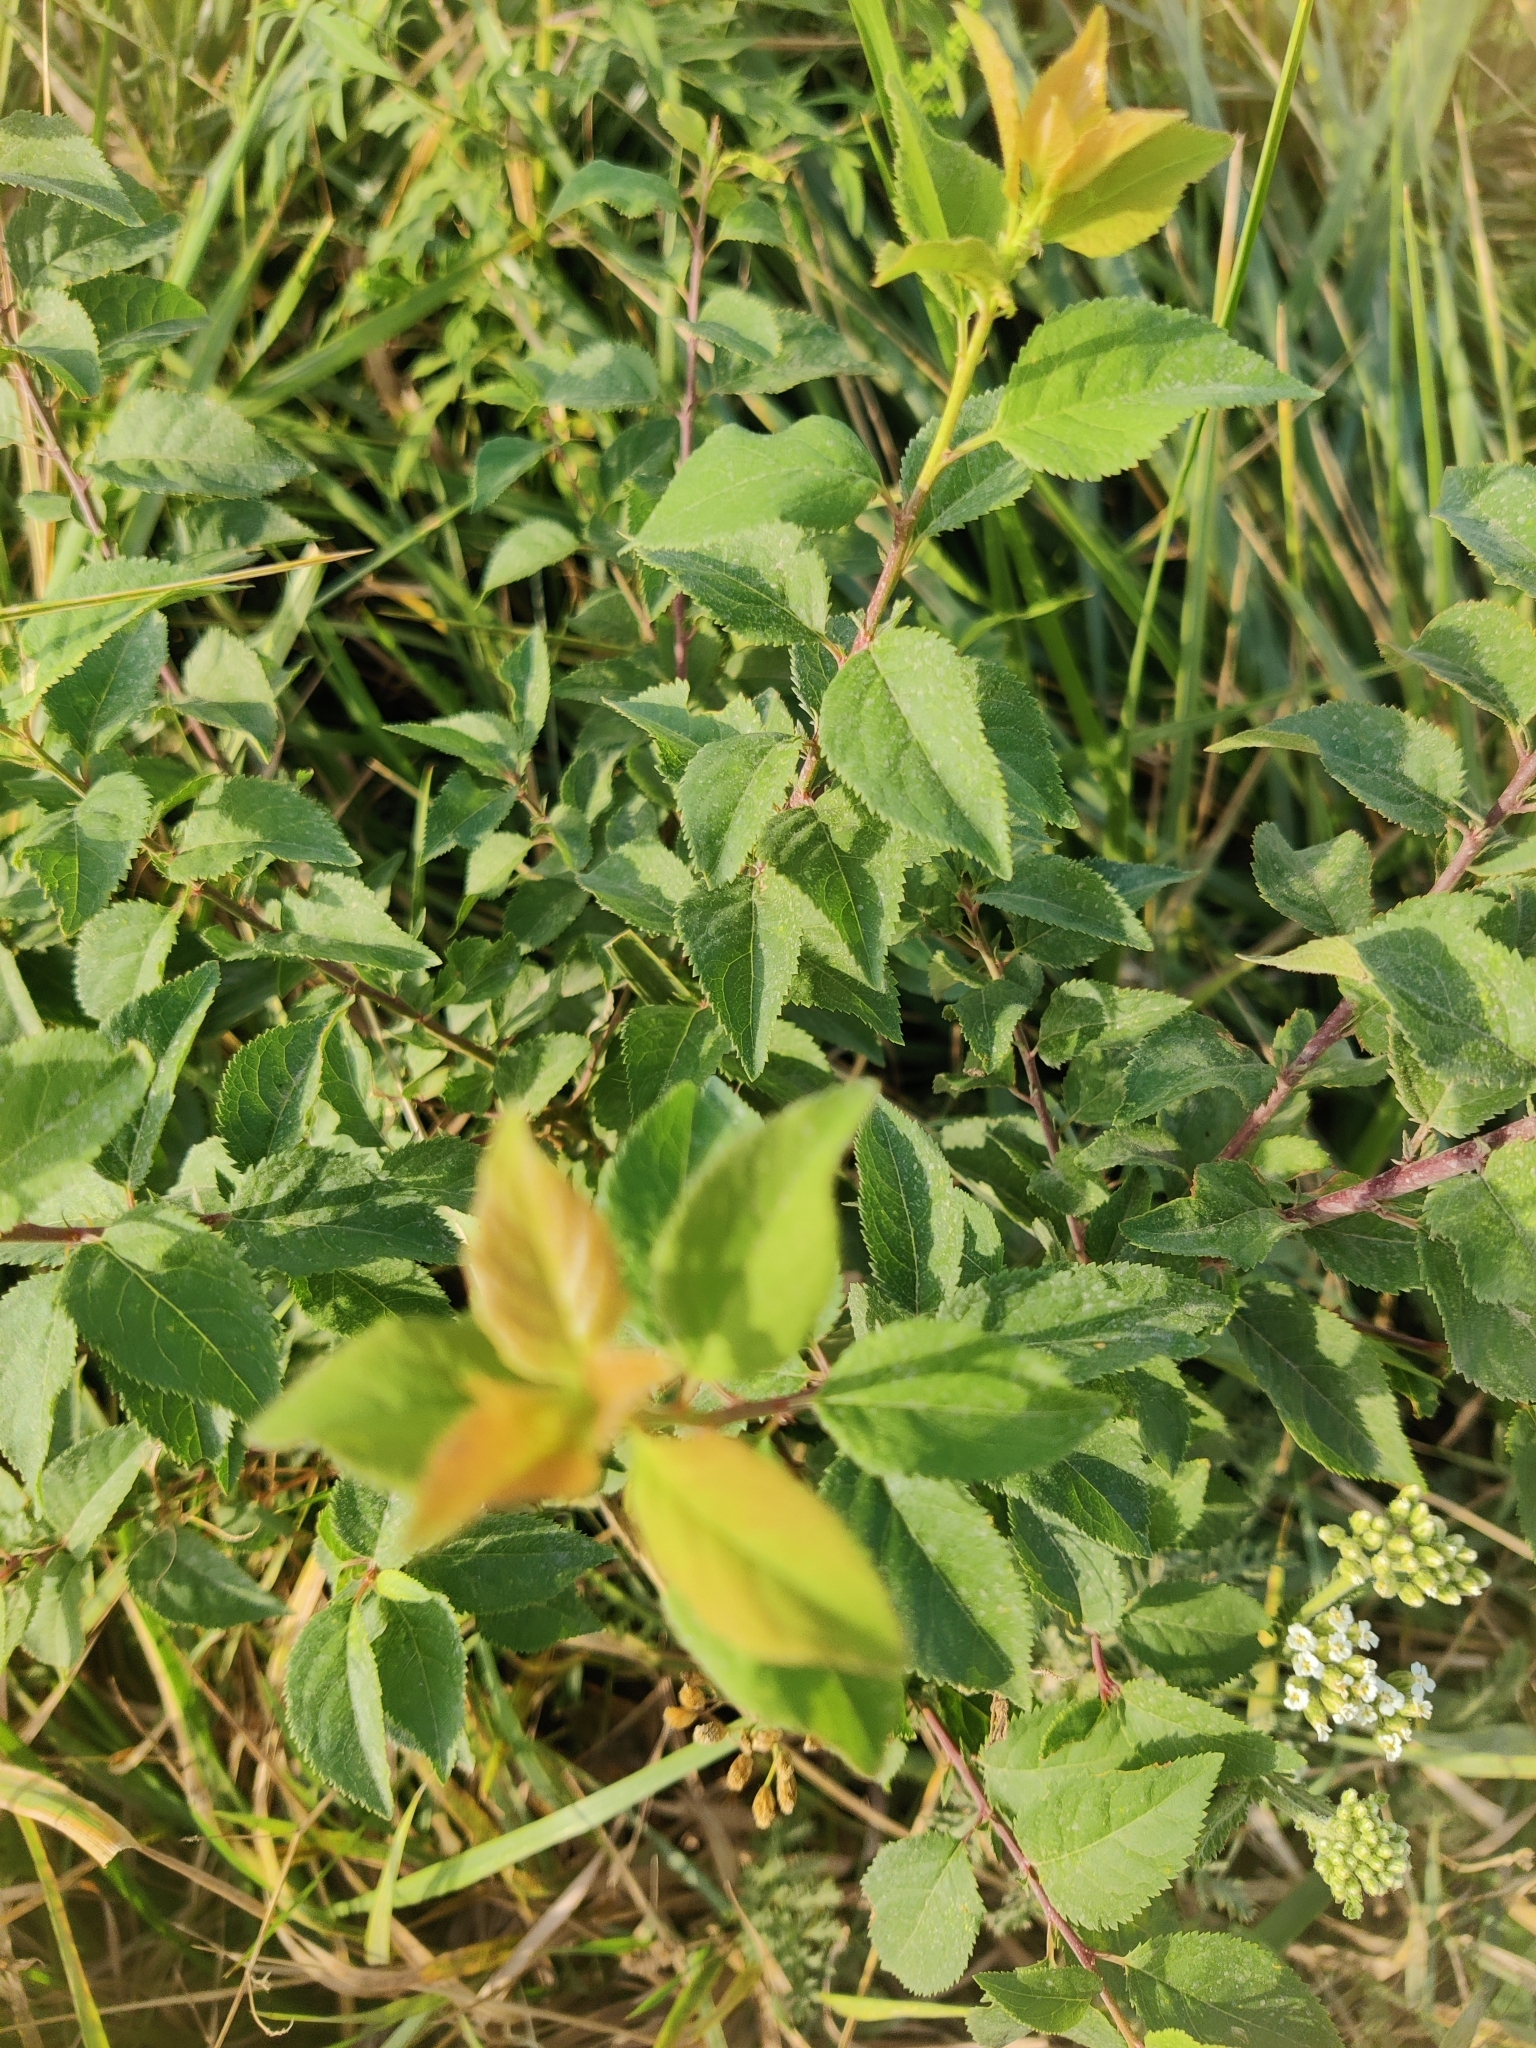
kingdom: Plantae
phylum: Tracheophyta
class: Magnoliopsida
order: Rosales
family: Rosaceae
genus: Prunus
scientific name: Prunus spinosa
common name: Blackthorn
